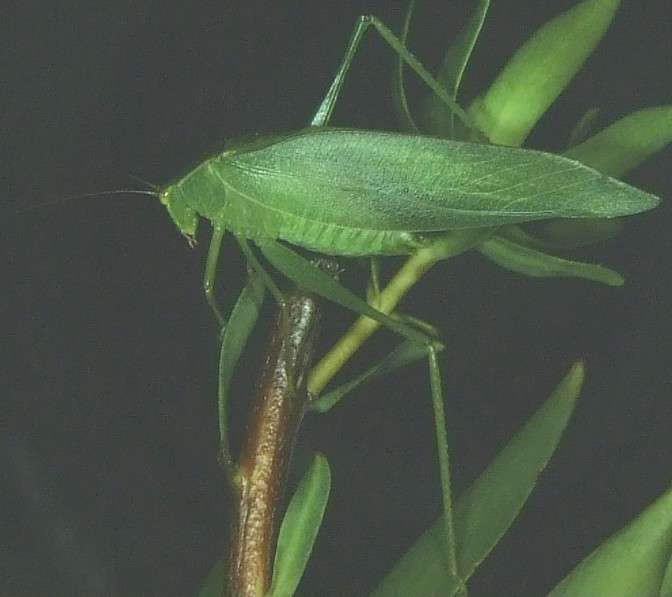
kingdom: Animalia
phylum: Arthropoda
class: Insecta
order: Orthoptera
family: Tettigoniidae
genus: Caedicia
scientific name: Caedicia simplex
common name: Common garden katydid
